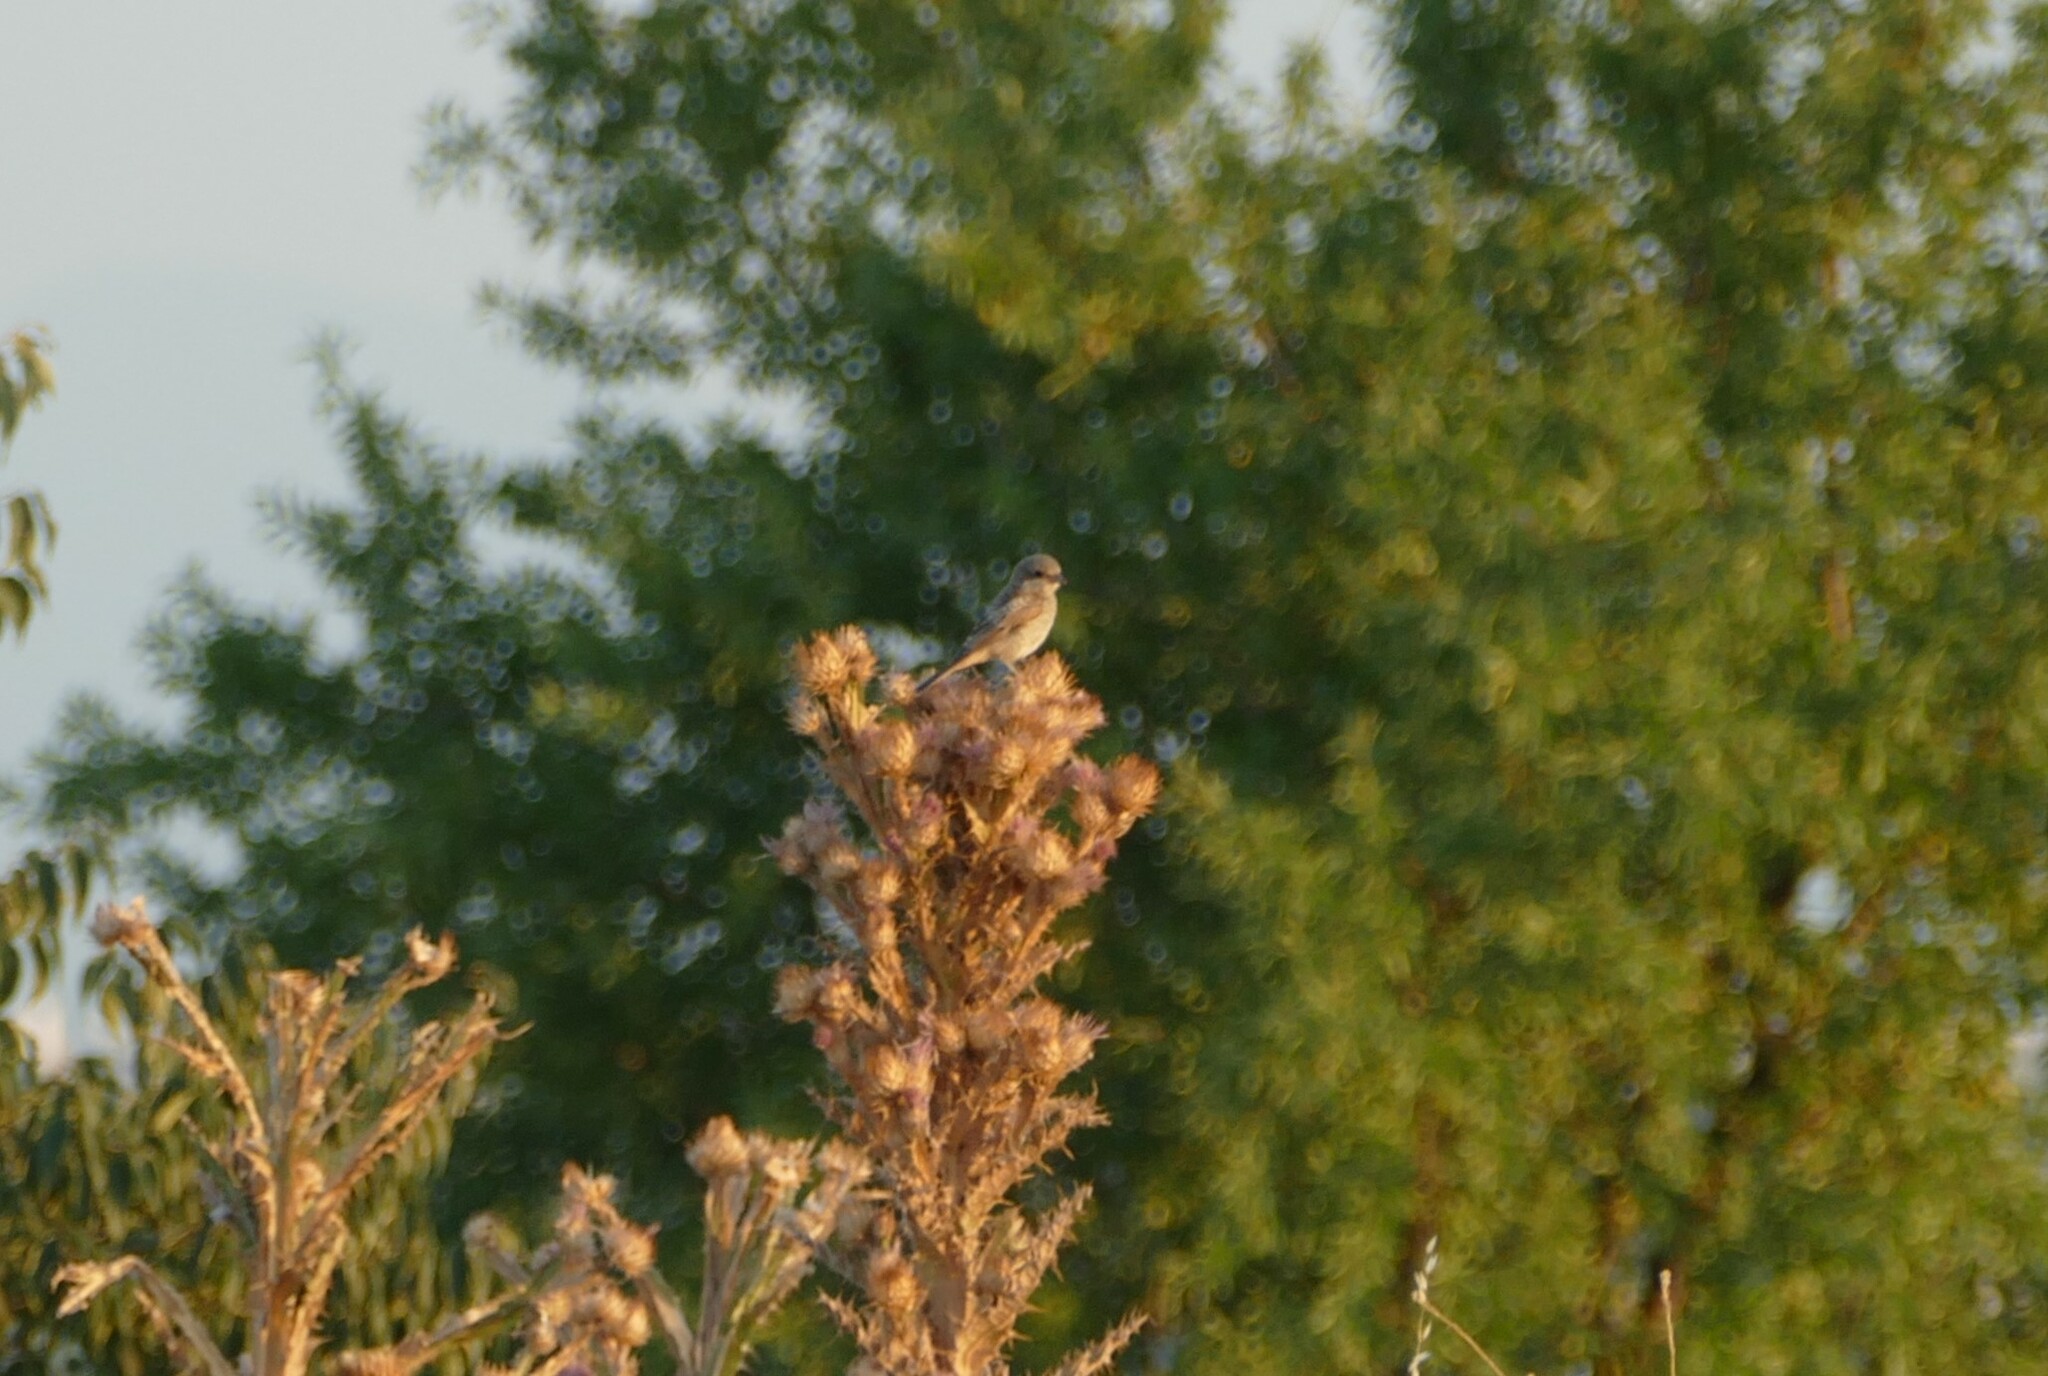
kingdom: Animalia
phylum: Chordata
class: Aves
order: Passeriformes
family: Laniidae
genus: Lanius
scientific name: Lanius senator
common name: Woodchat shrike
